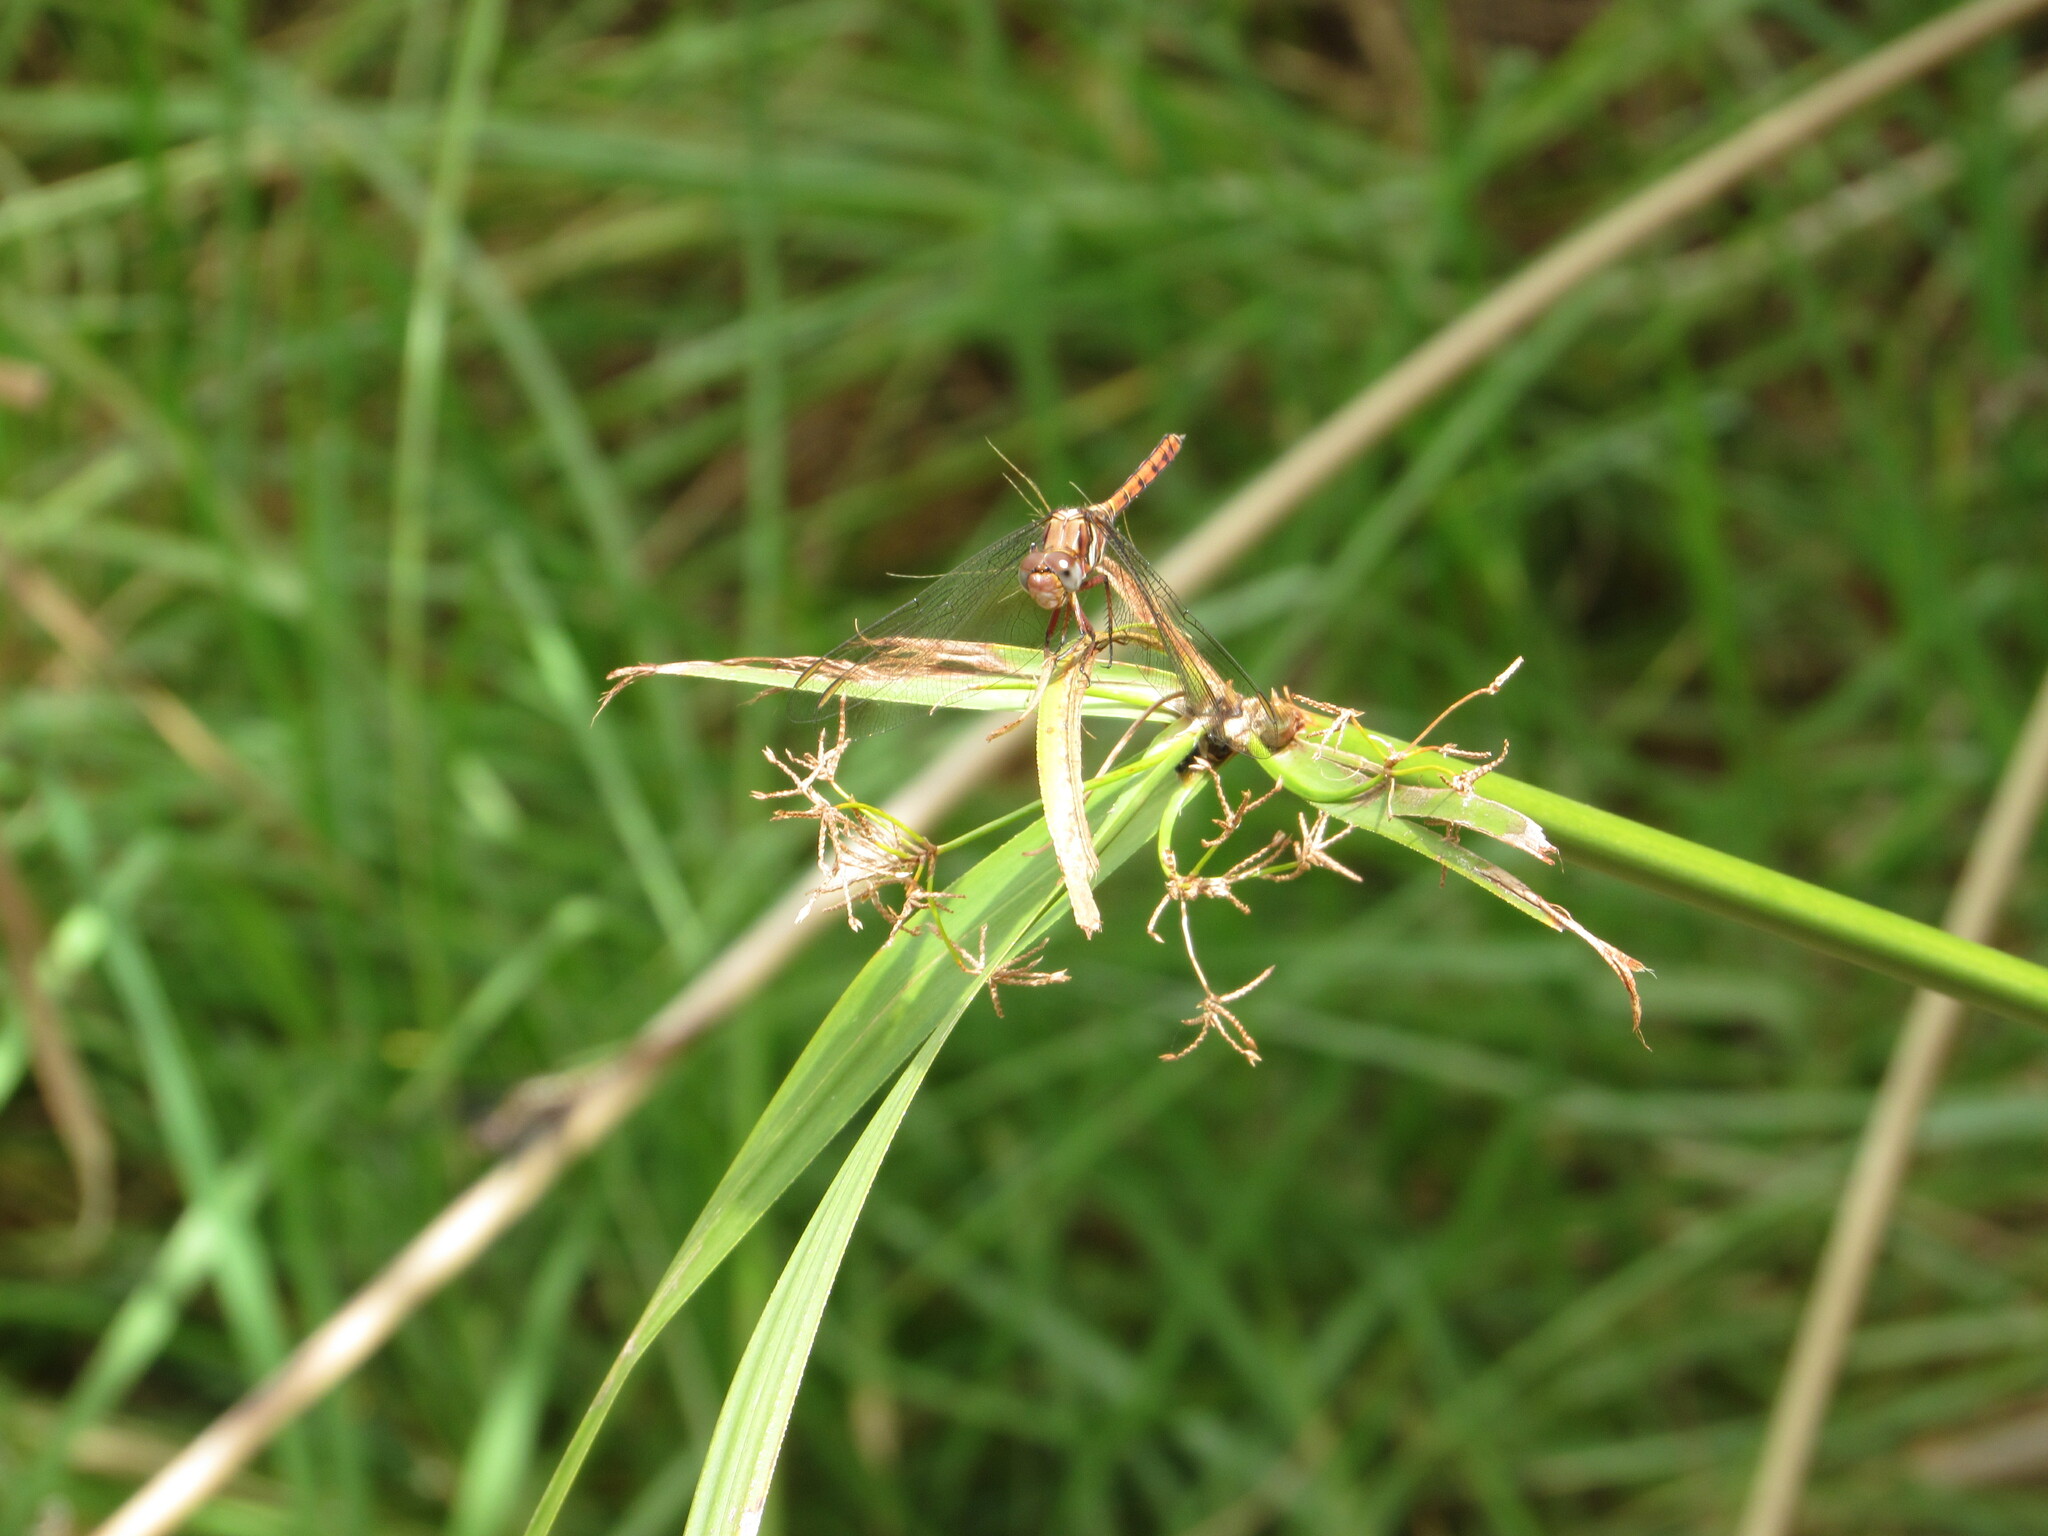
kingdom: Animalia
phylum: Arthropoda
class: Insecta
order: Odonata
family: Libellulidae
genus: Orthetrum
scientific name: Orthetrum julia
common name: Julia skimmer
